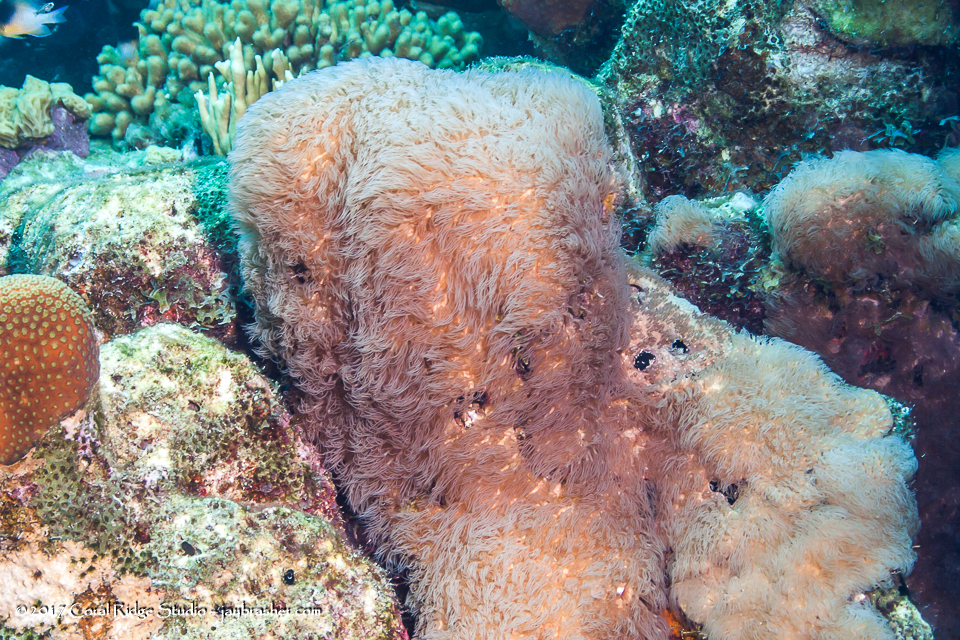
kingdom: Animalia
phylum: Cnidaria
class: Anthozoa
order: Scleralcyonacea
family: Erythropodiidae
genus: Erythropodium
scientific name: Erythropodium caribaeorum
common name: Encrusting gorgonian
